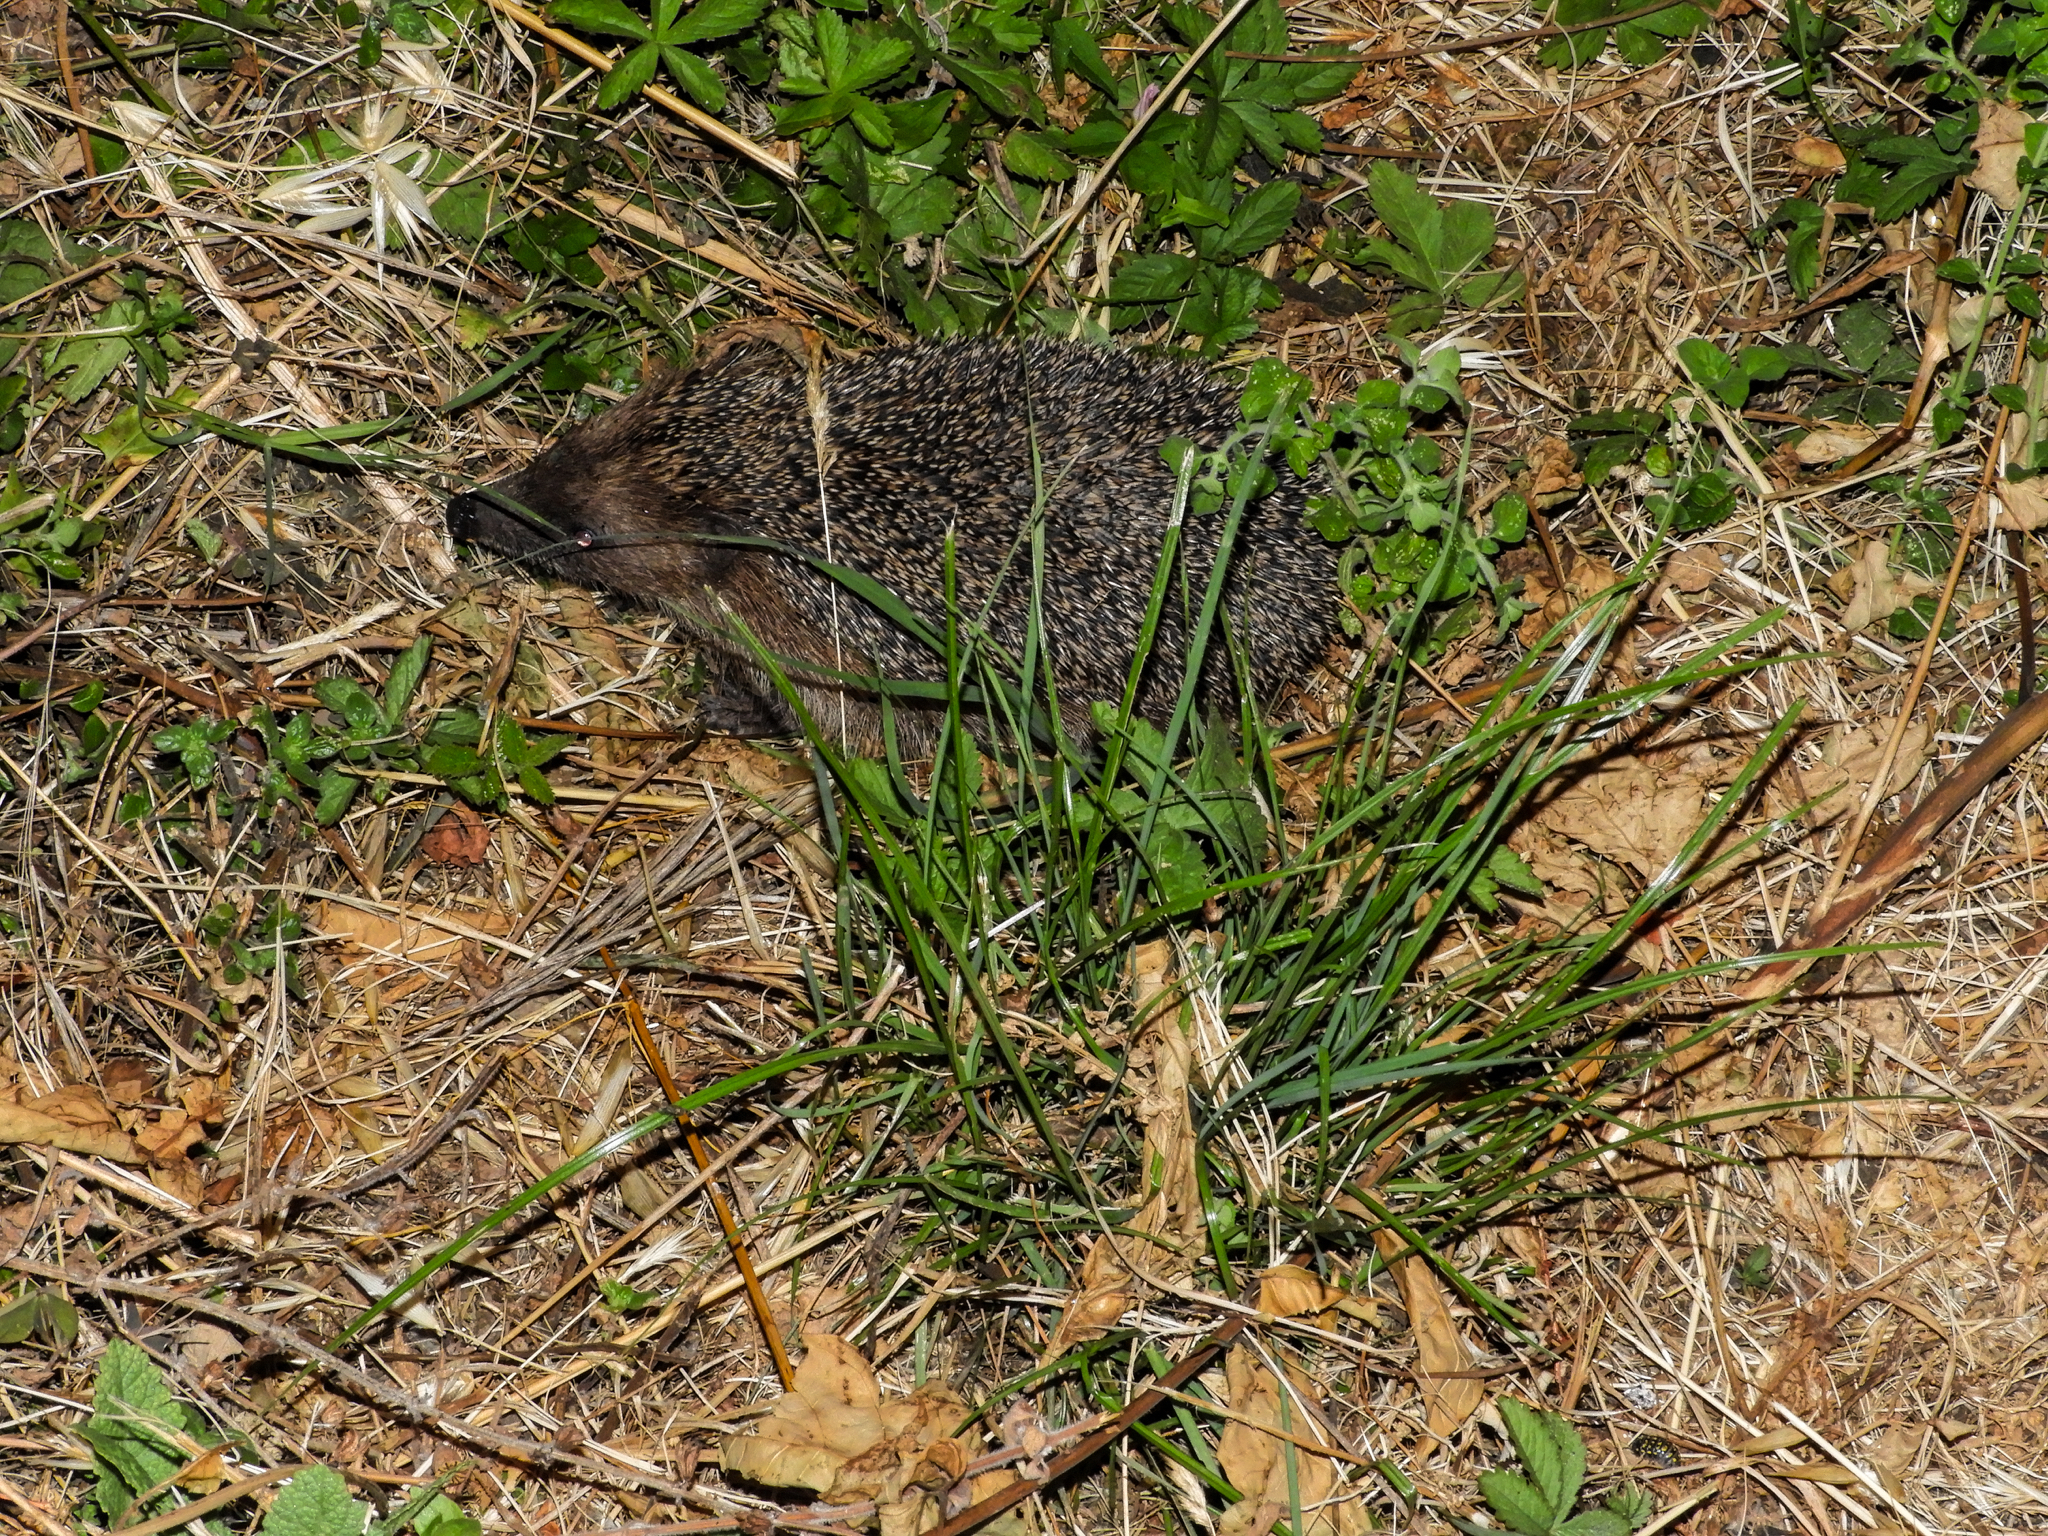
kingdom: Animalia
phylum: Chordata
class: Mammalia
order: Erinaceomorpha
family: Erinaceidae
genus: Erinaceus
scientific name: Erinaceus europaeus
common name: West european hedgehog
